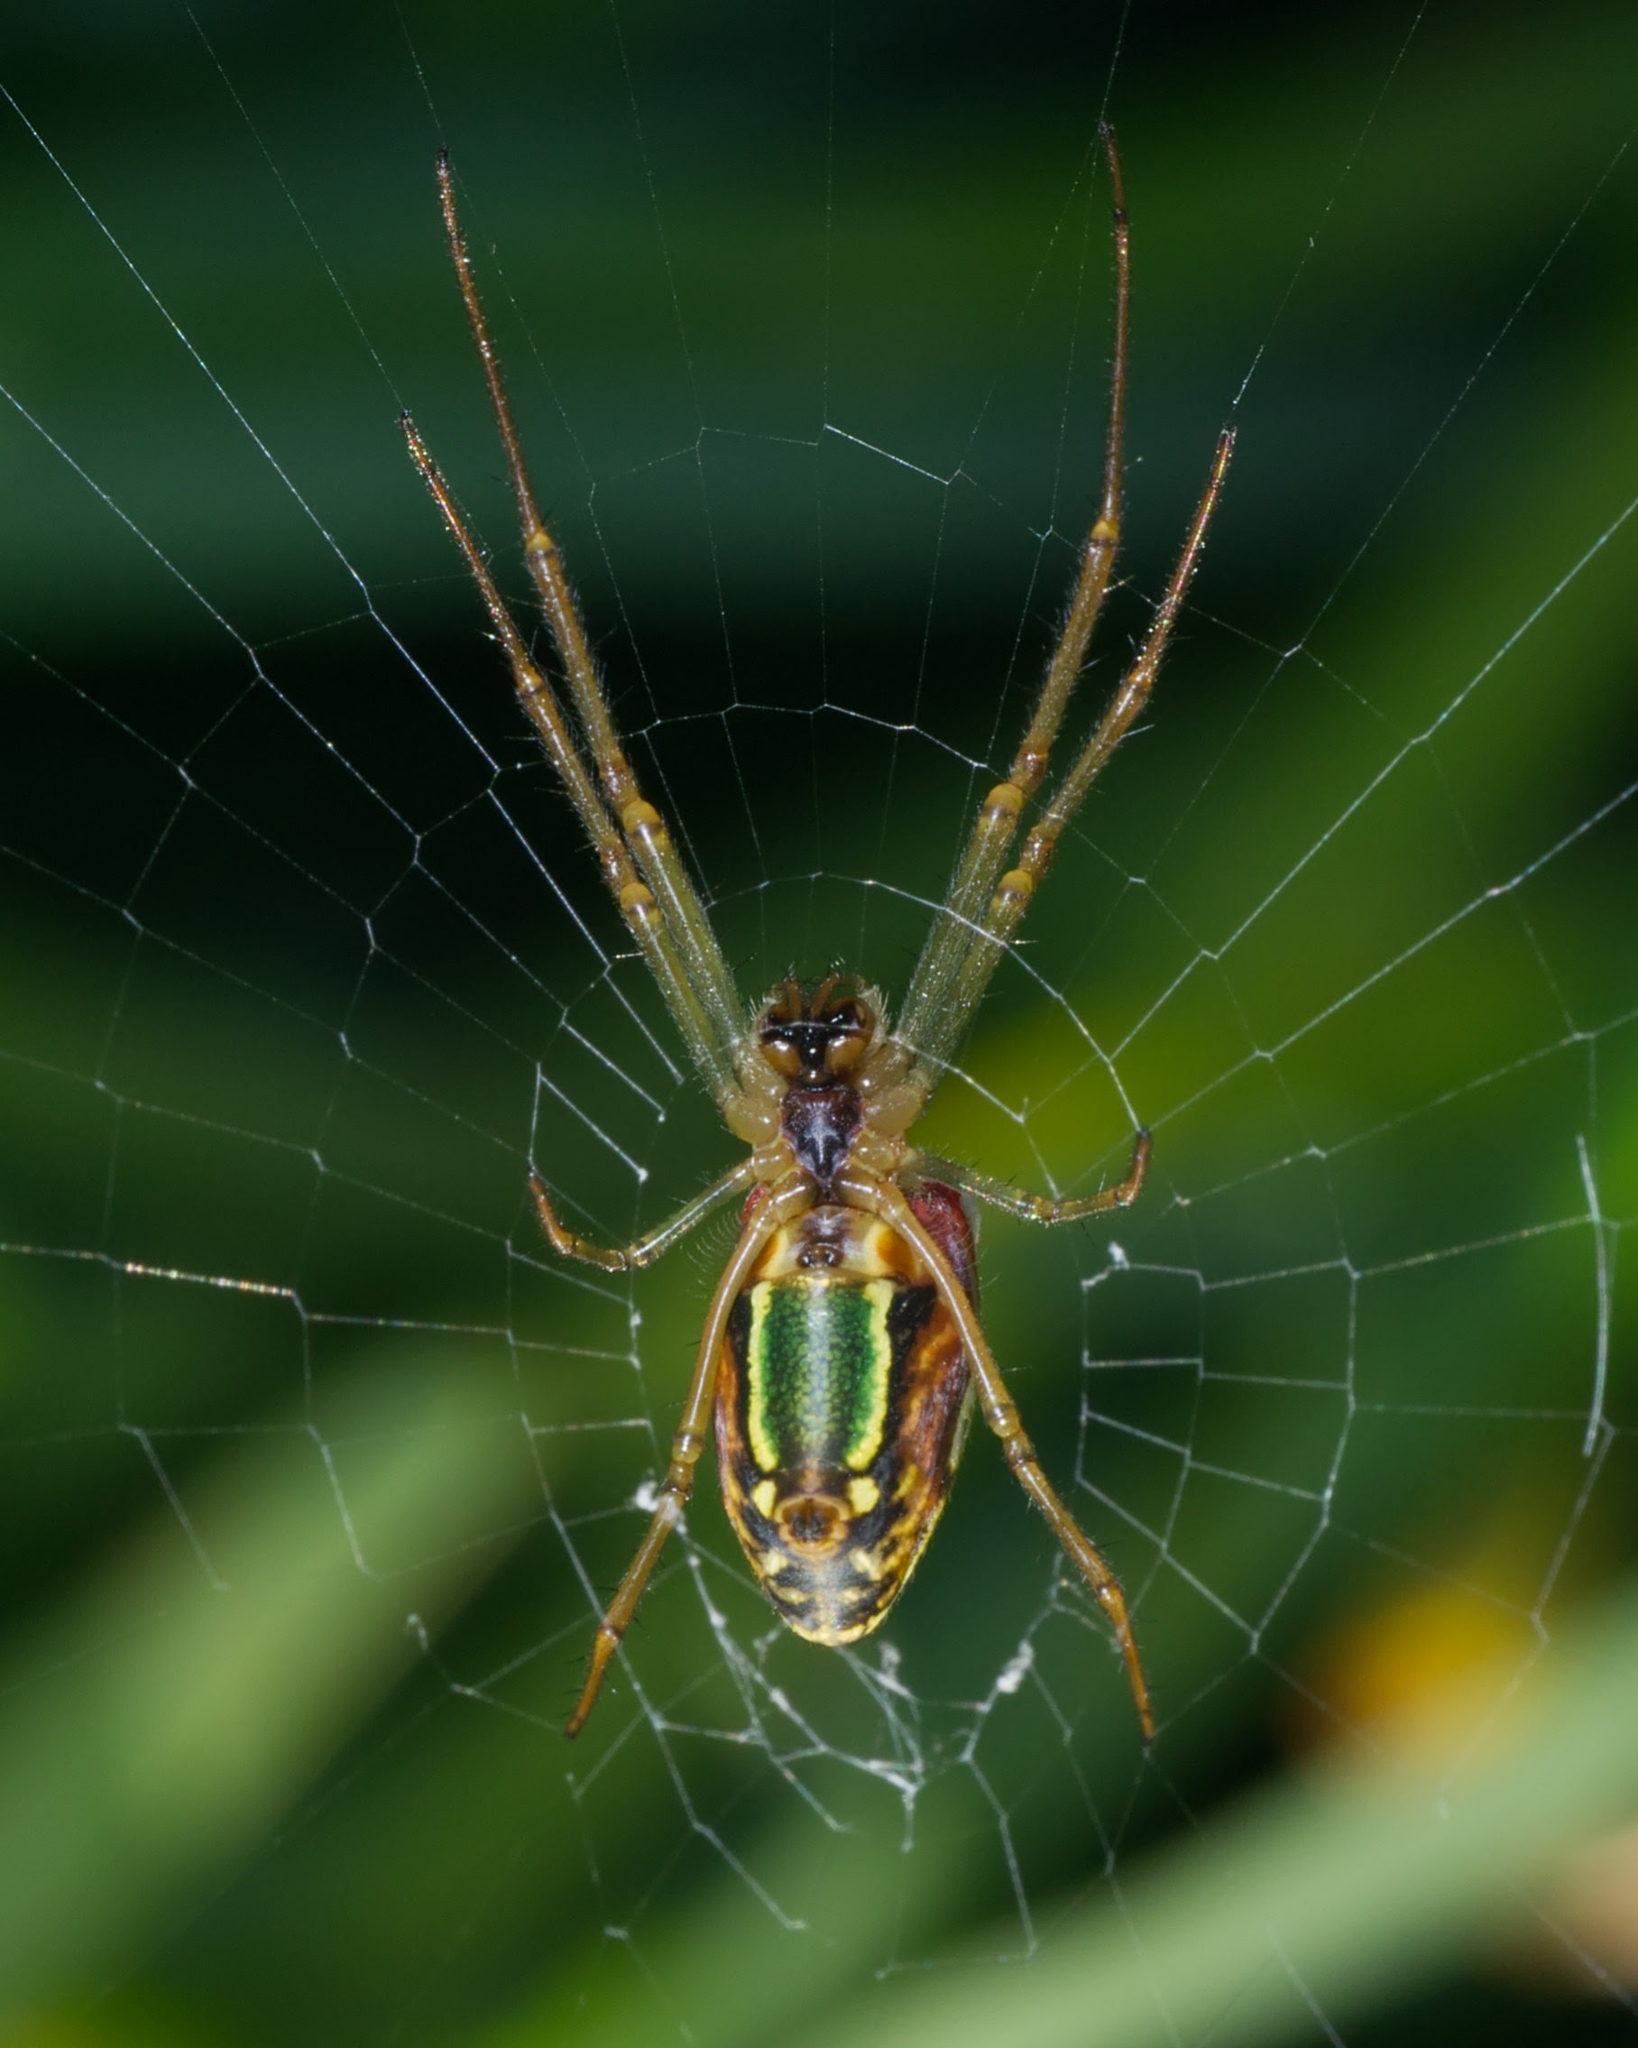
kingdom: Animalia
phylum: Arthropoda
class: Arachnida
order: Araneae
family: Tetragnathidae
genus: Leucauge
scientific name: Leucauge festiva
